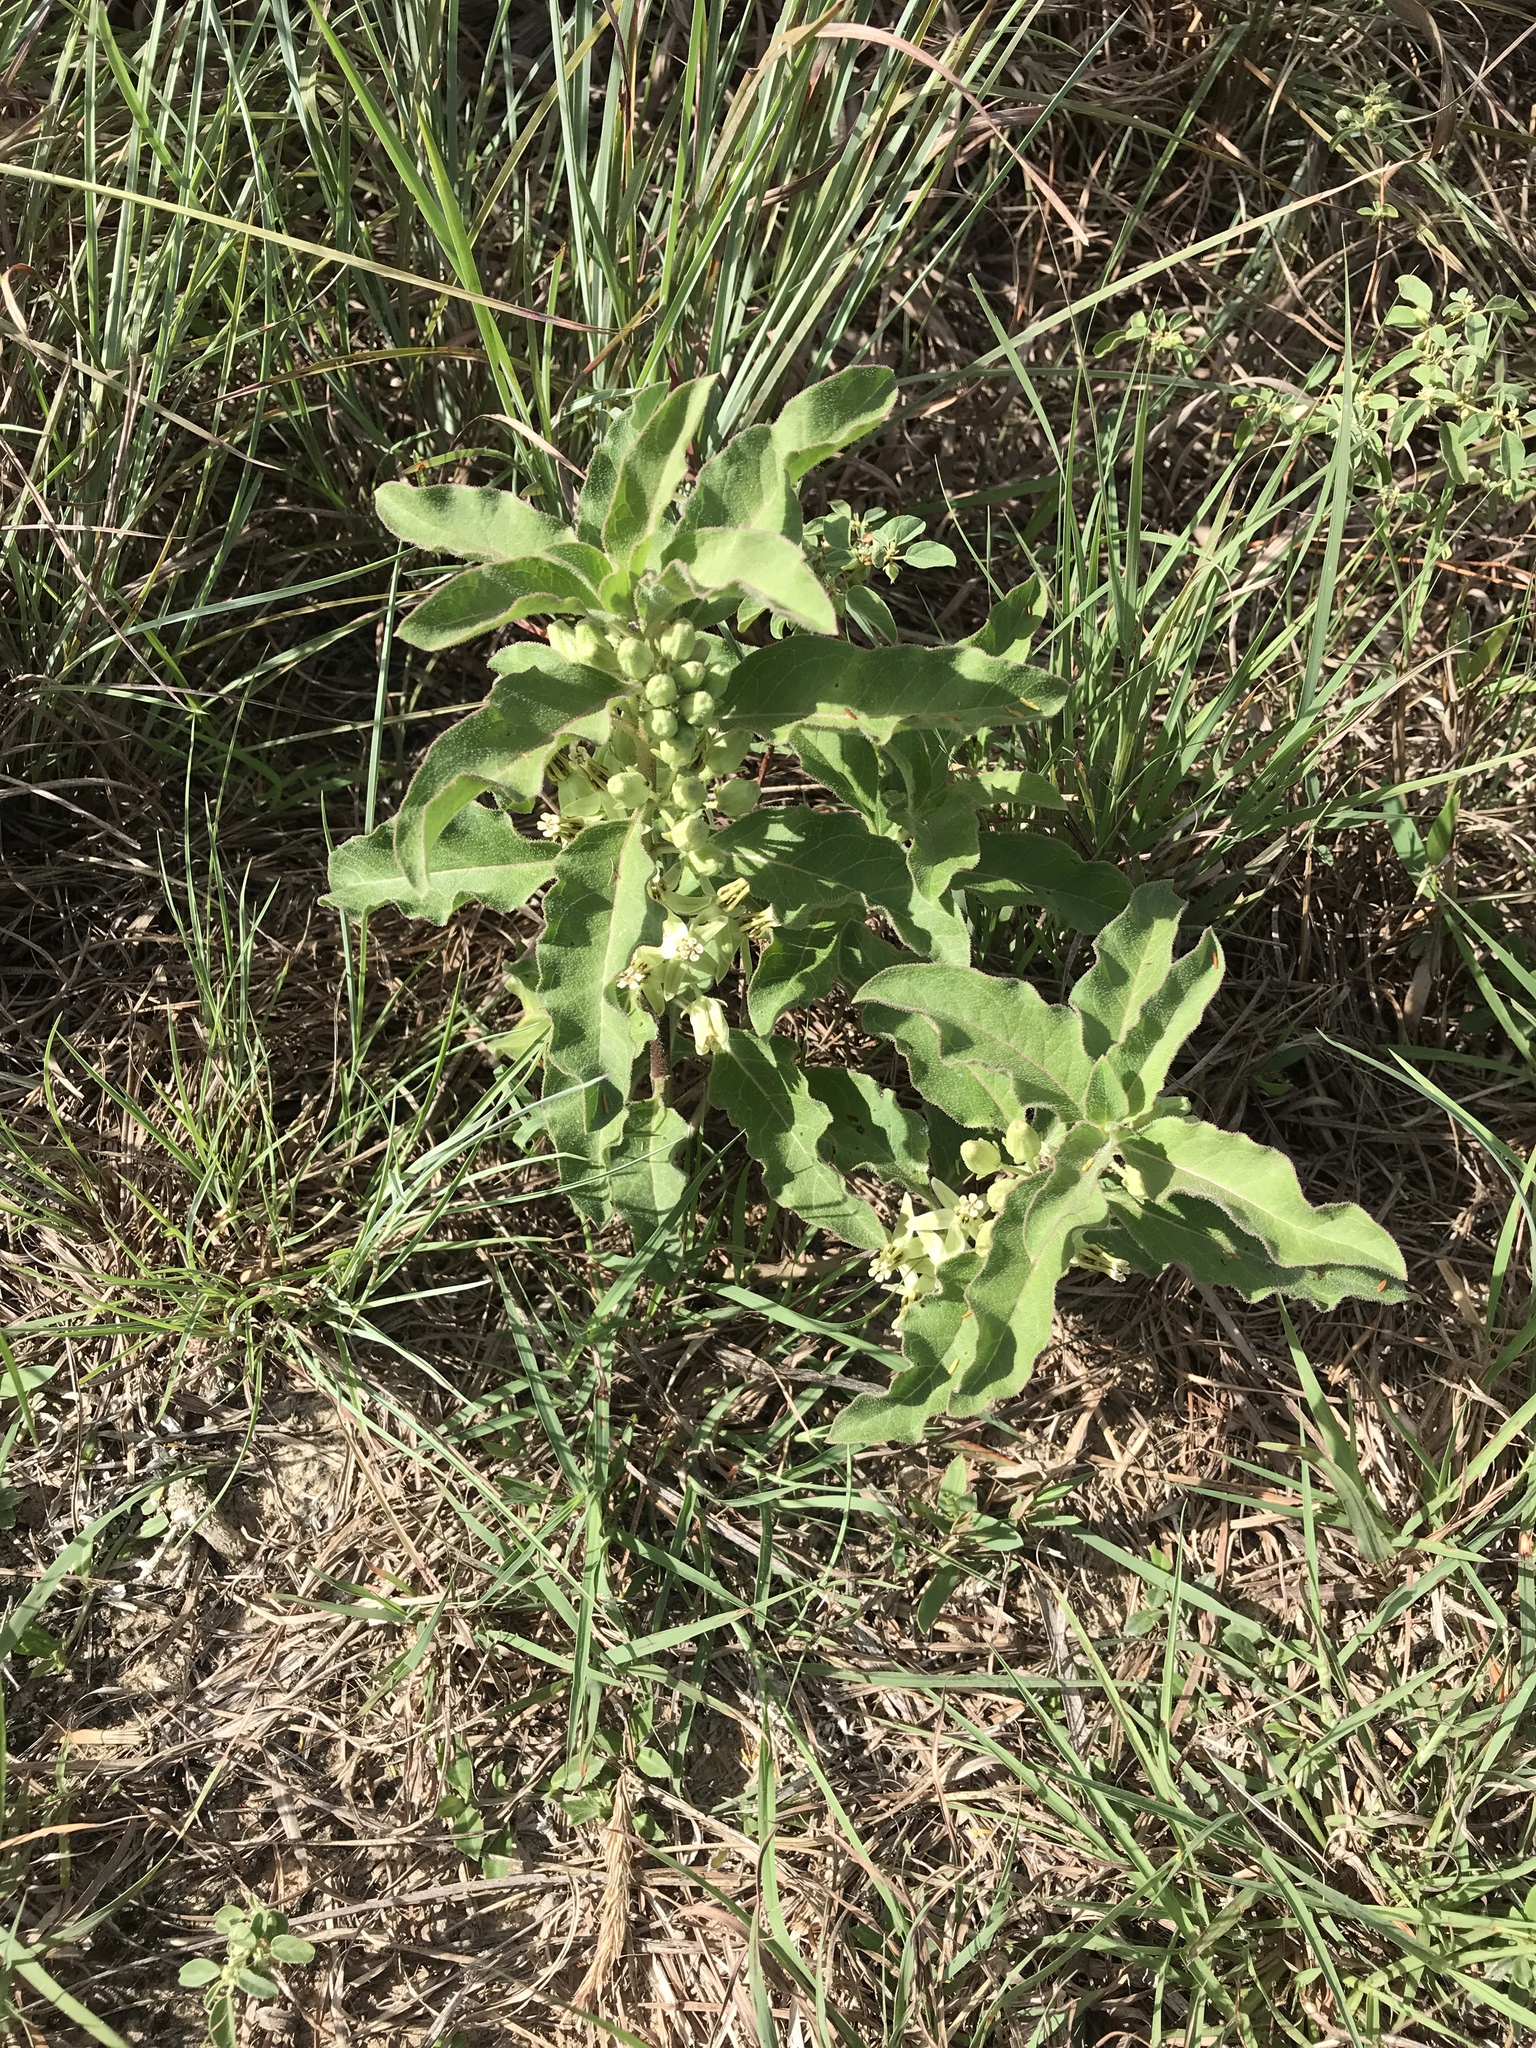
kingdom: Plantae
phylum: Tracheophyta
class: Magnoliopsida
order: Gentianales
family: Apocynaceae
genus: Asclepias
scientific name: Asclepias oenotheroides
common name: Zizotes milkweed
